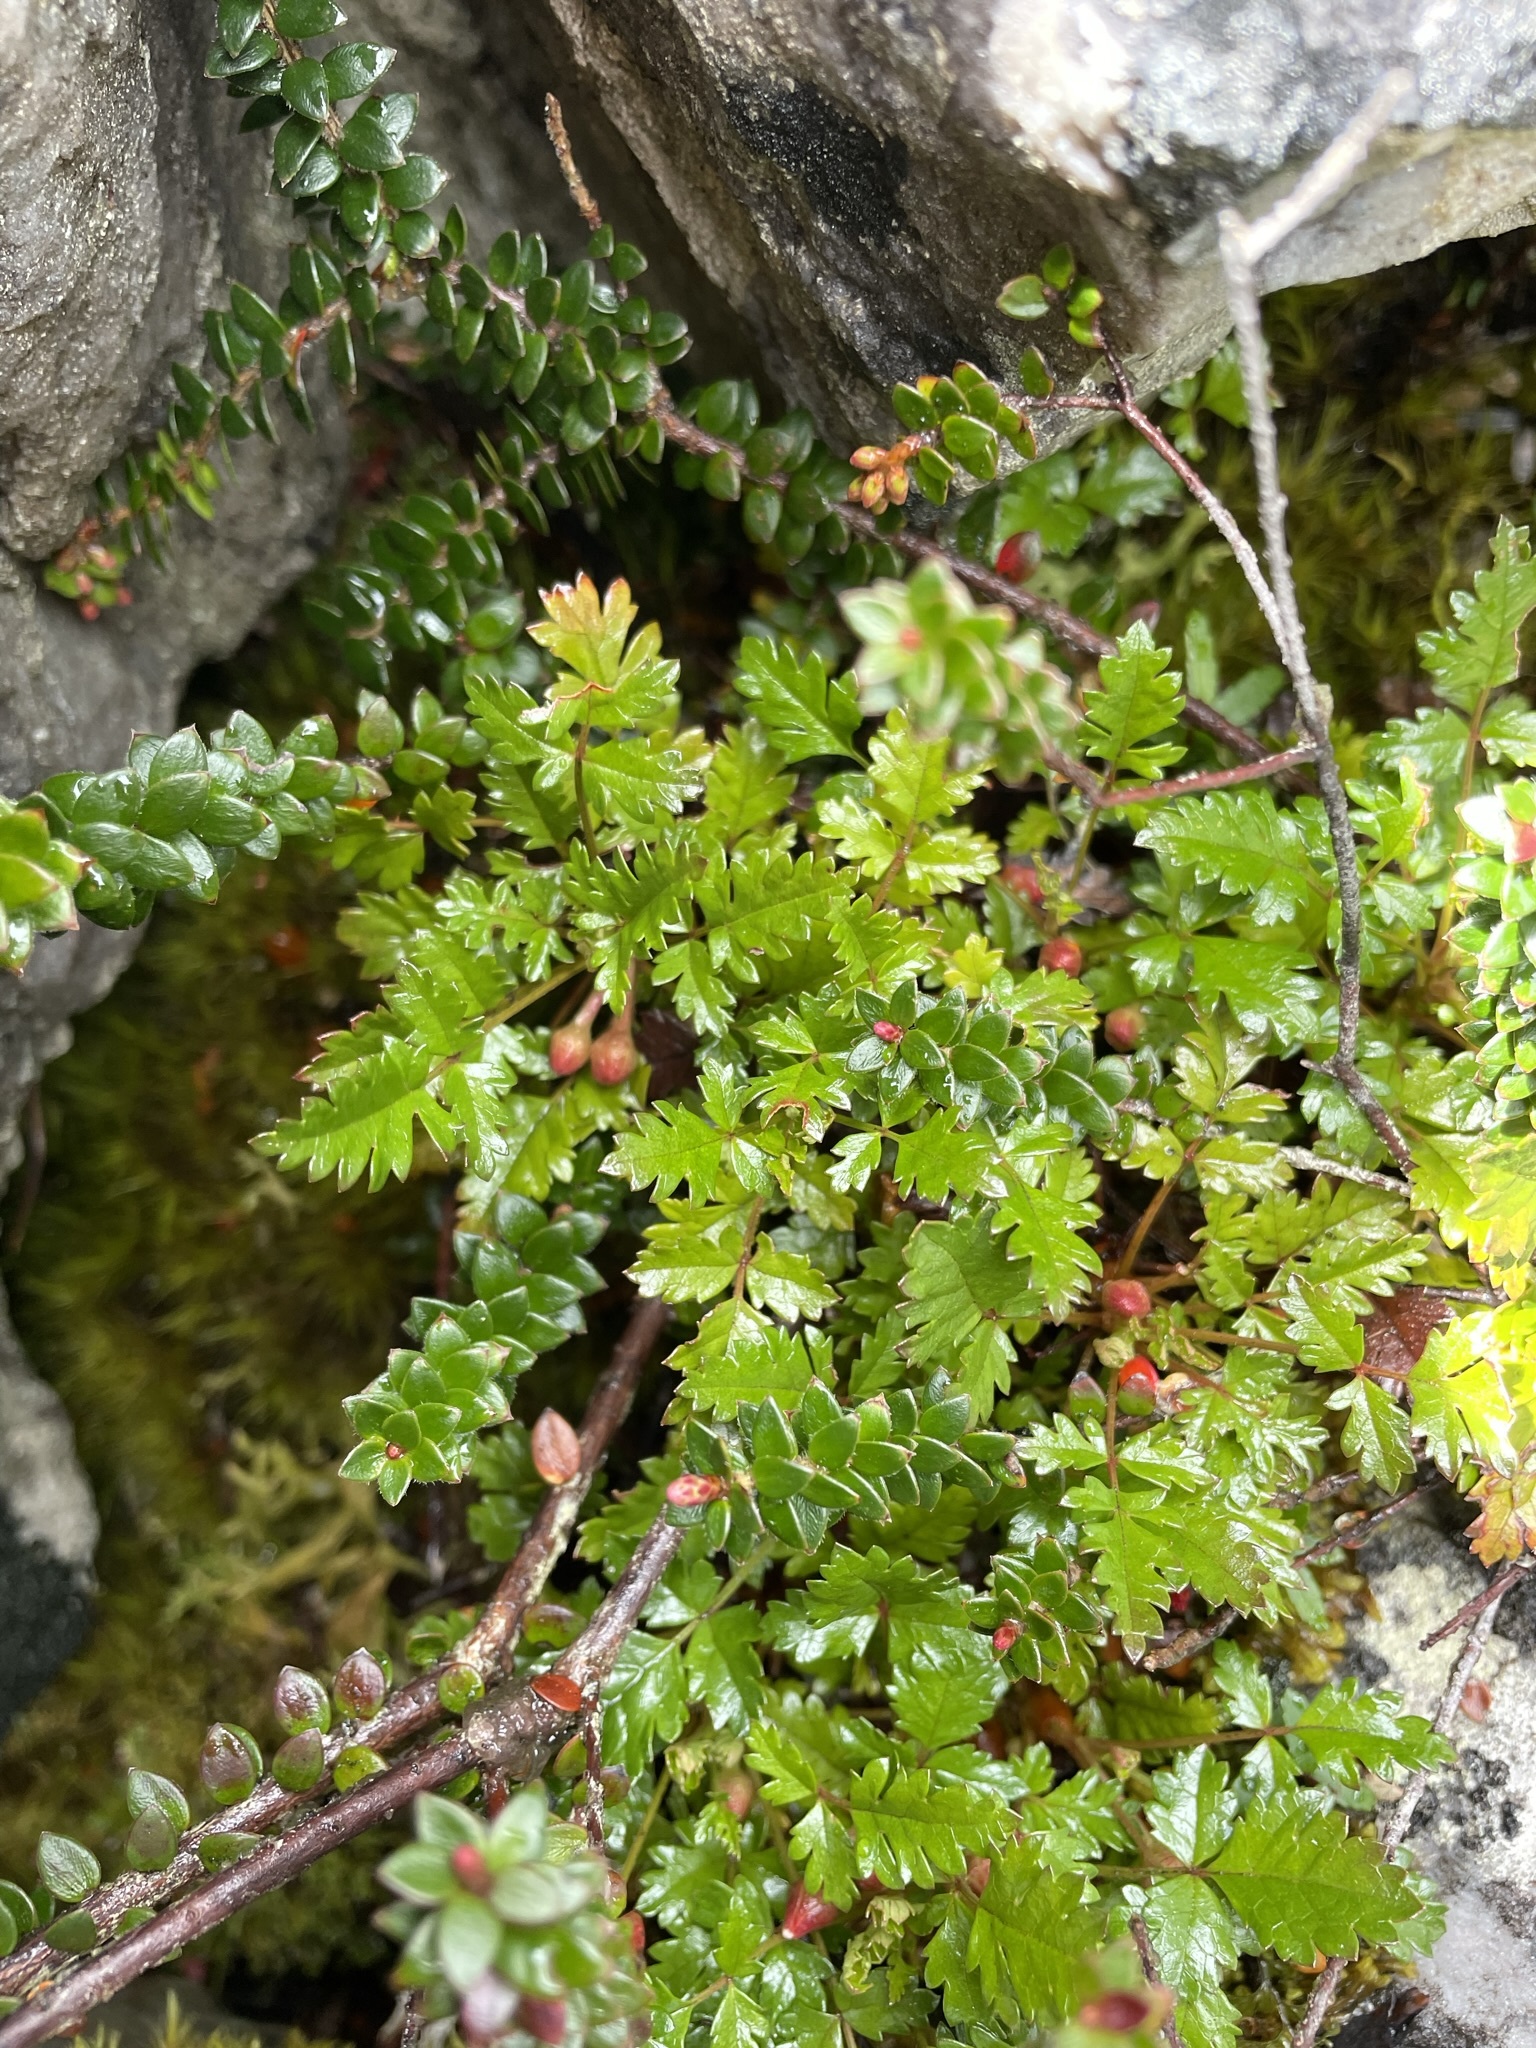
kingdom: Plantae
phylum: Tracheophyta
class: Magnoliopsida
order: Rosales
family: Rosaceae
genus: Rubus
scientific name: Rubus gunnianus
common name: Mountain raspberry
